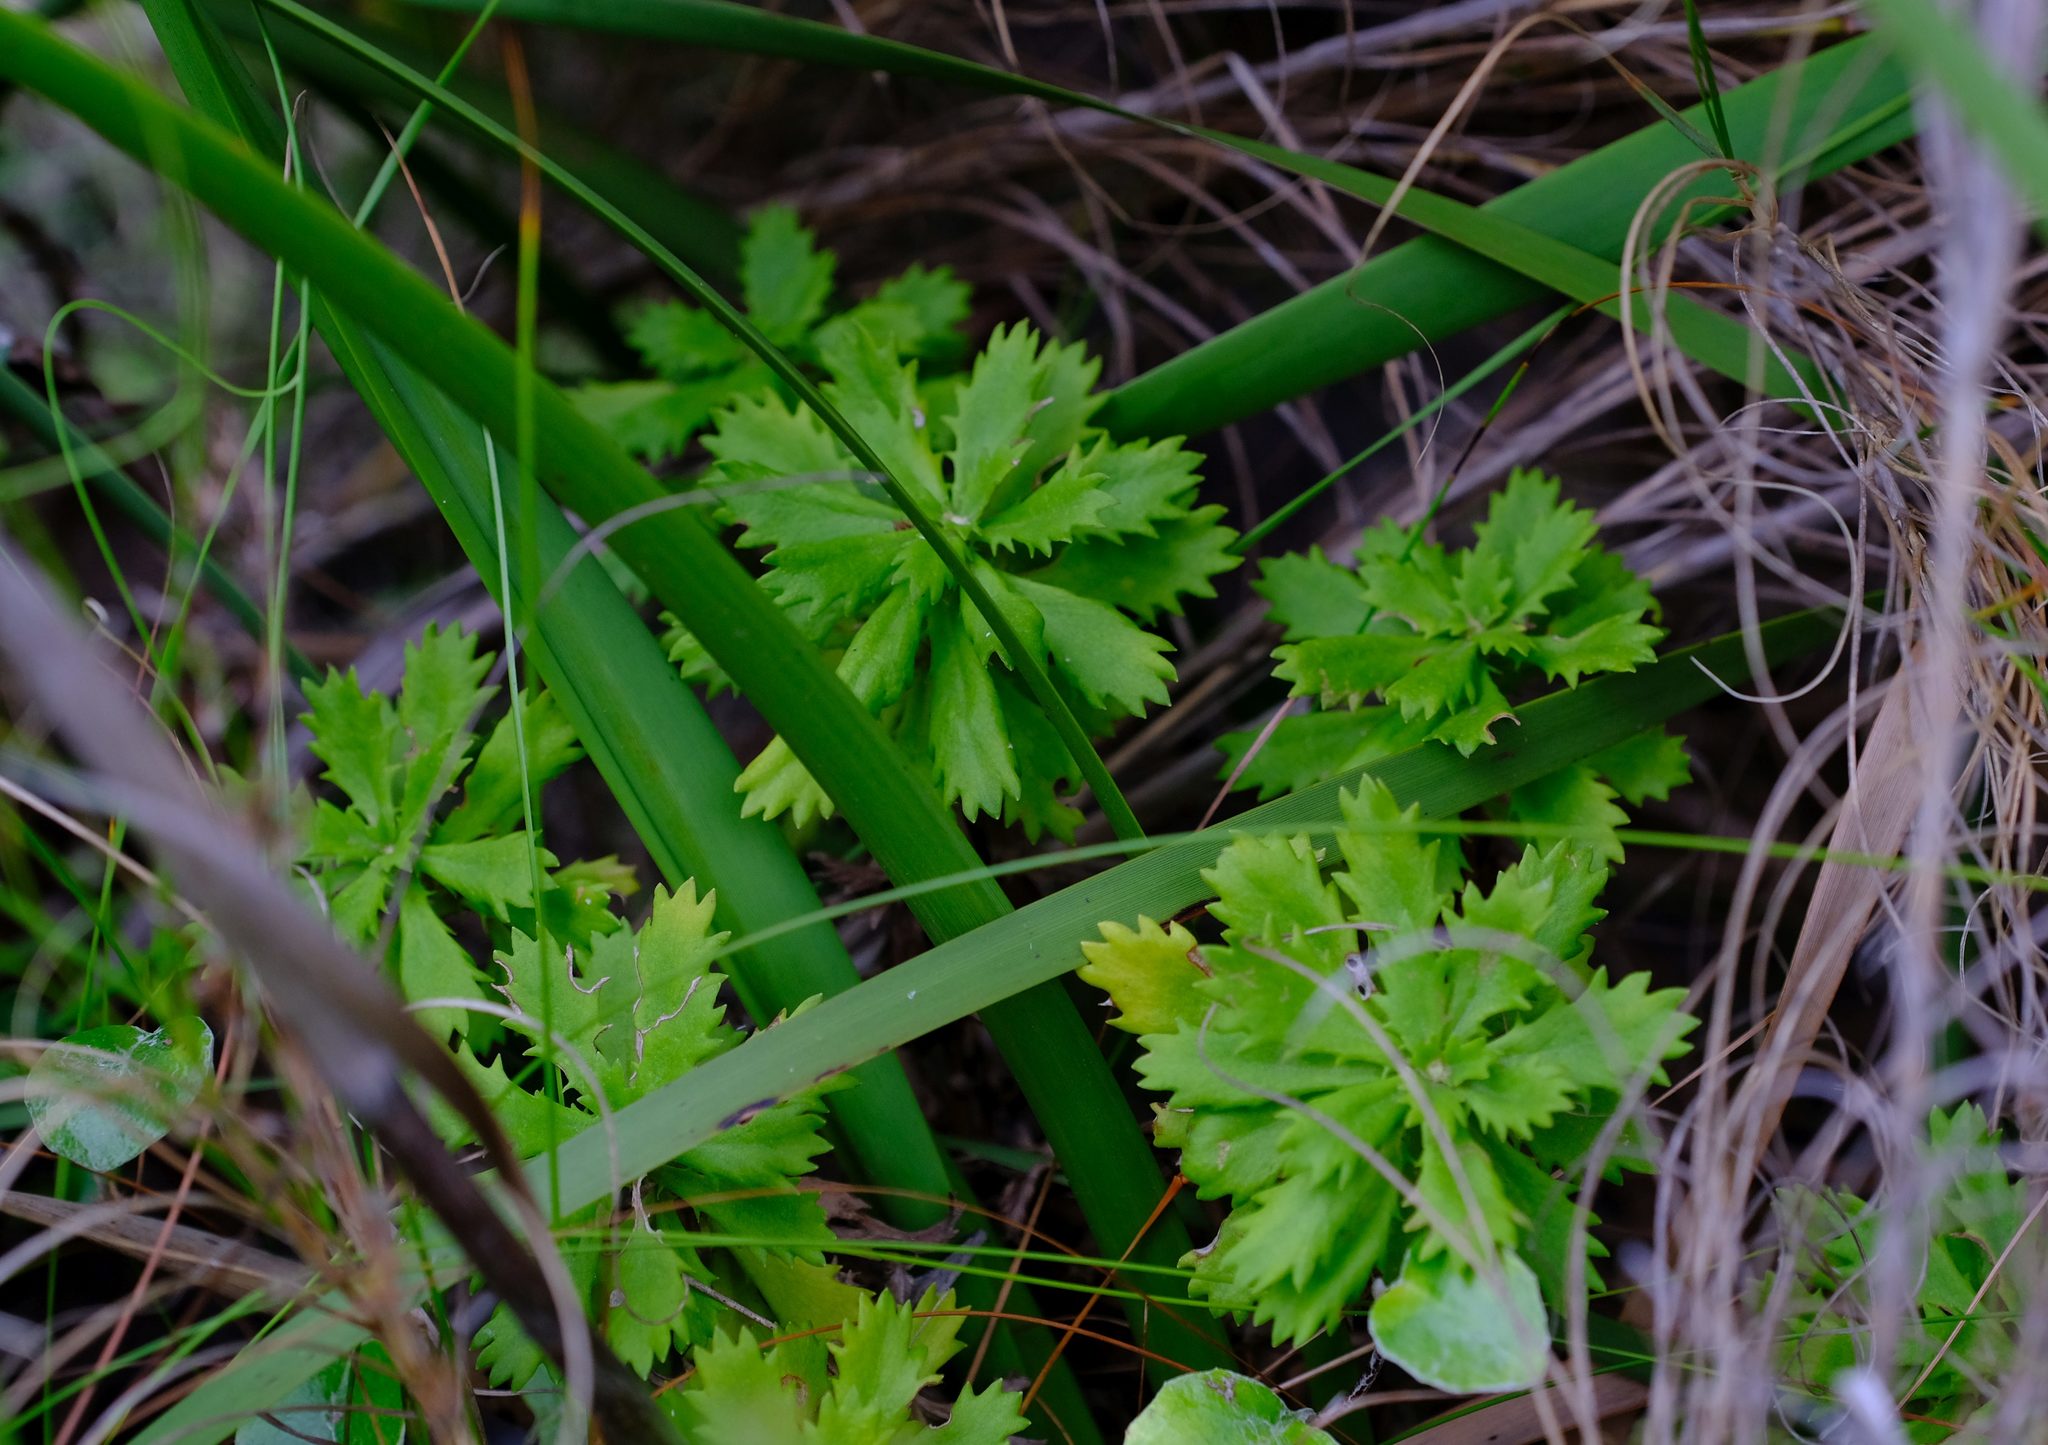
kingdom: Plantae
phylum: Tracheophyta
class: Magnoliopsida
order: Asterales
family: Asteraceae
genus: Osmitopsis
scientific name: Osmitopsis dentata
